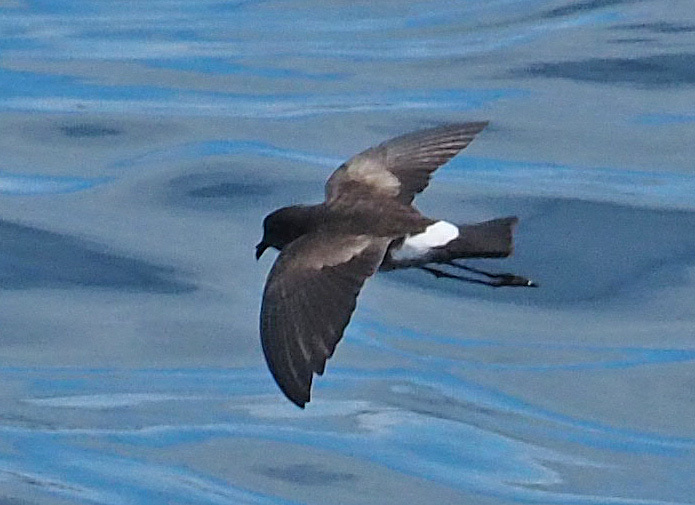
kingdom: Animalia
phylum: Chordata
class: Aves
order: Procellariiformes
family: Hydrobatidae
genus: Oceanodroma
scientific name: Oceanodroma castro
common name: Band-rumped storm-petrel
